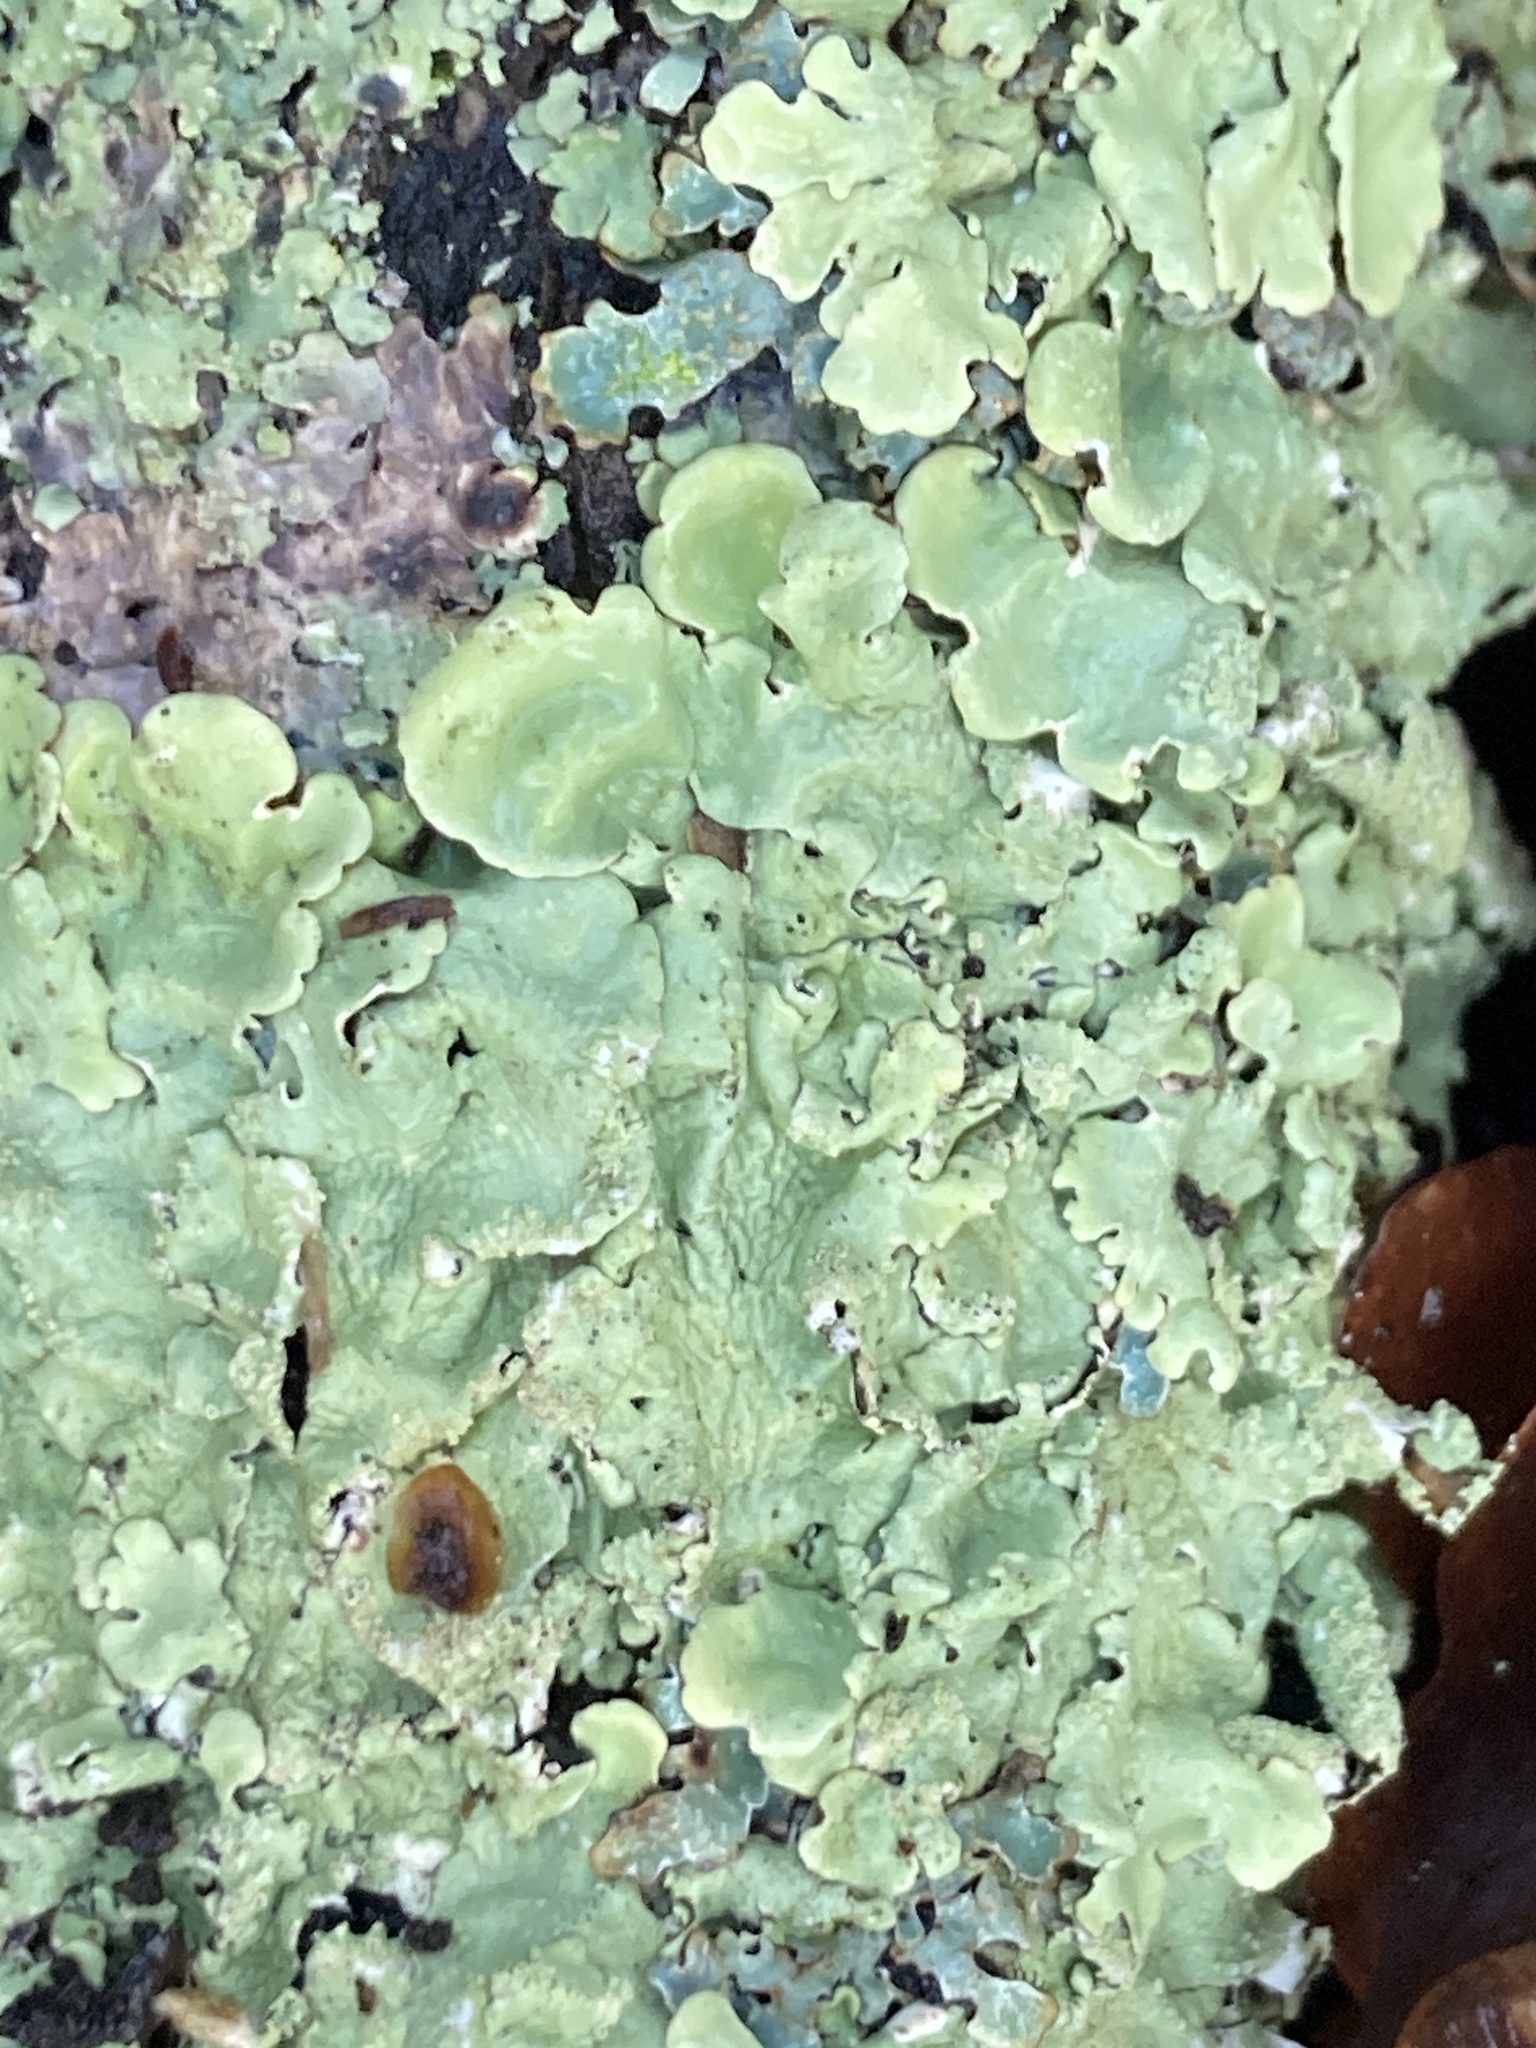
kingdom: Fungi
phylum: Ascomycota
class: Lecanoromycetes
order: Lecanorales
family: Parmeliaceae
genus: Flavoparmelia
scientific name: Flavoparmelia caperata
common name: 40-mile per hour lichen
